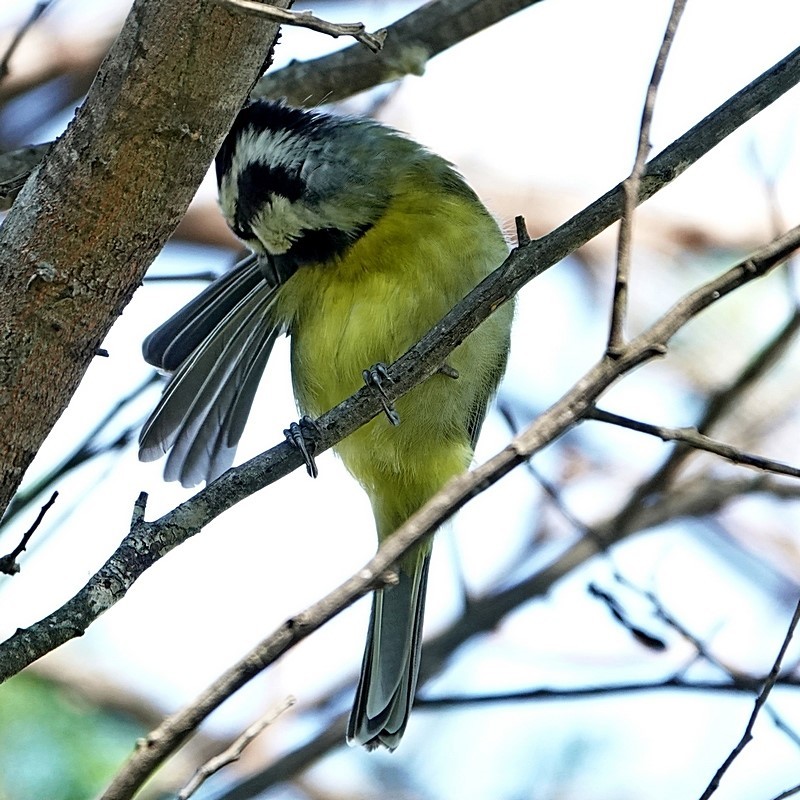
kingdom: Animalia
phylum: Chordata
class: Aves
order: Passeriformes
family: Pachycephalidae
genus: Falcunculus
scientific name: Falcunculus frontatus
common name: Crested shriketit
